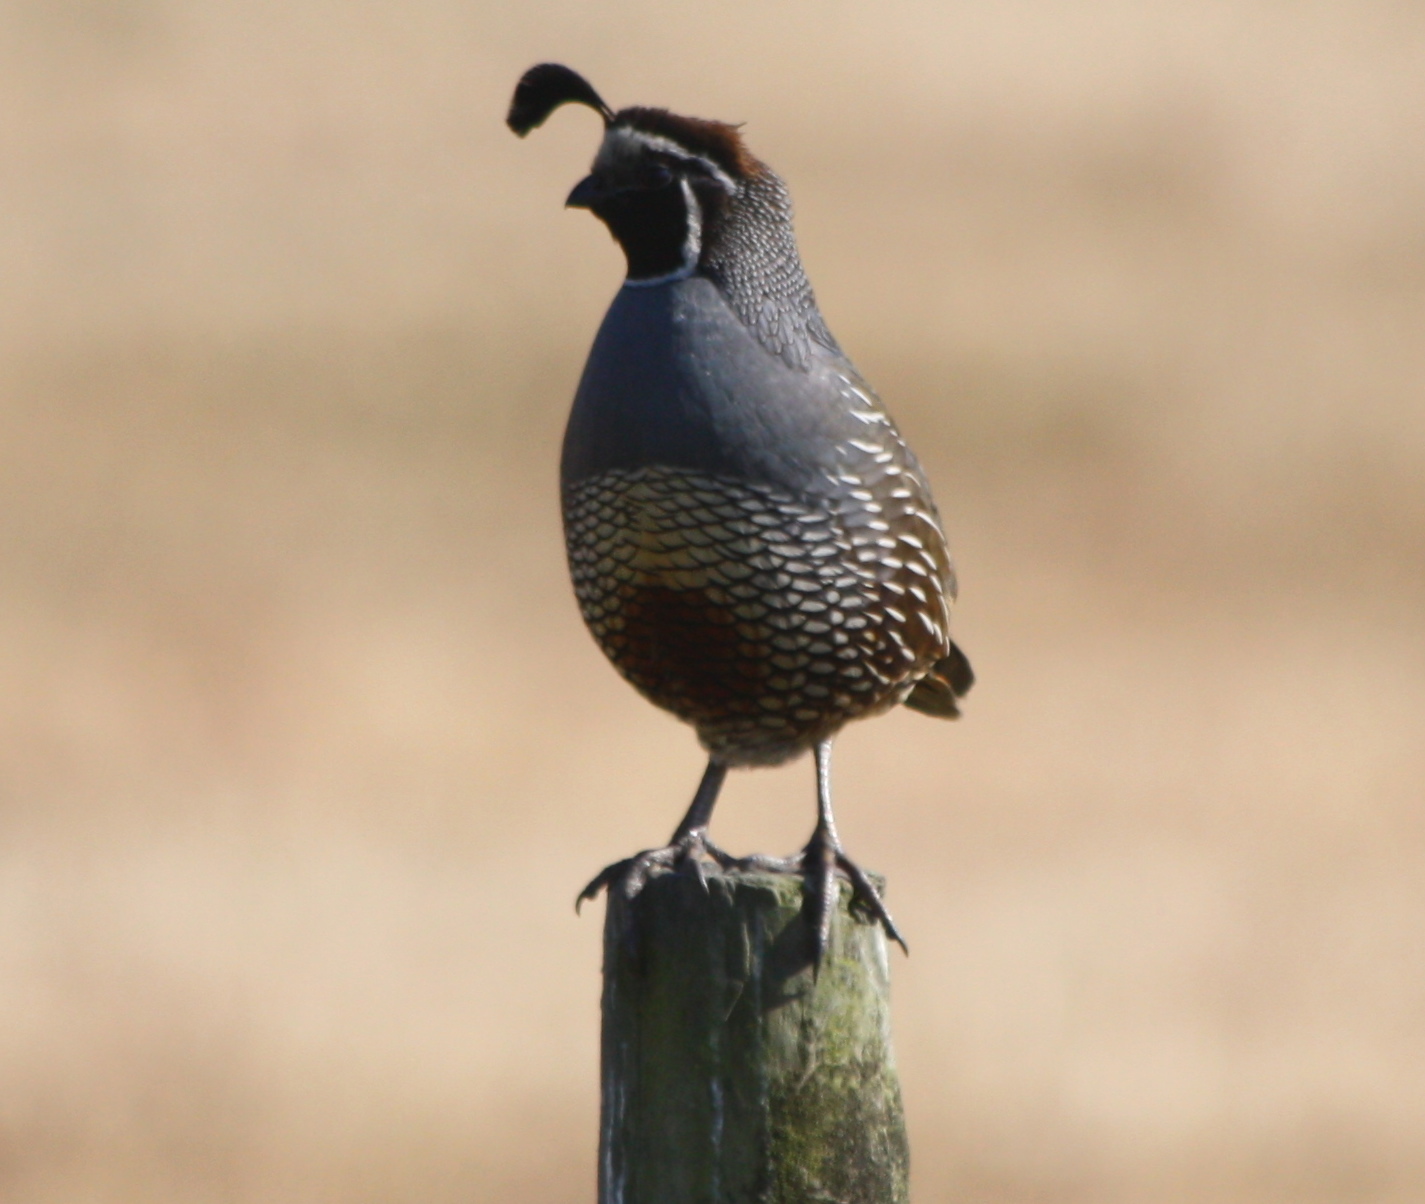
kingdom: Animalia
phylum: Chordata
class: Aves
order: Galliformes
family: Odontophoridae
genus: Callipepla
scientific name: Callipepla californica
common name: California quail
